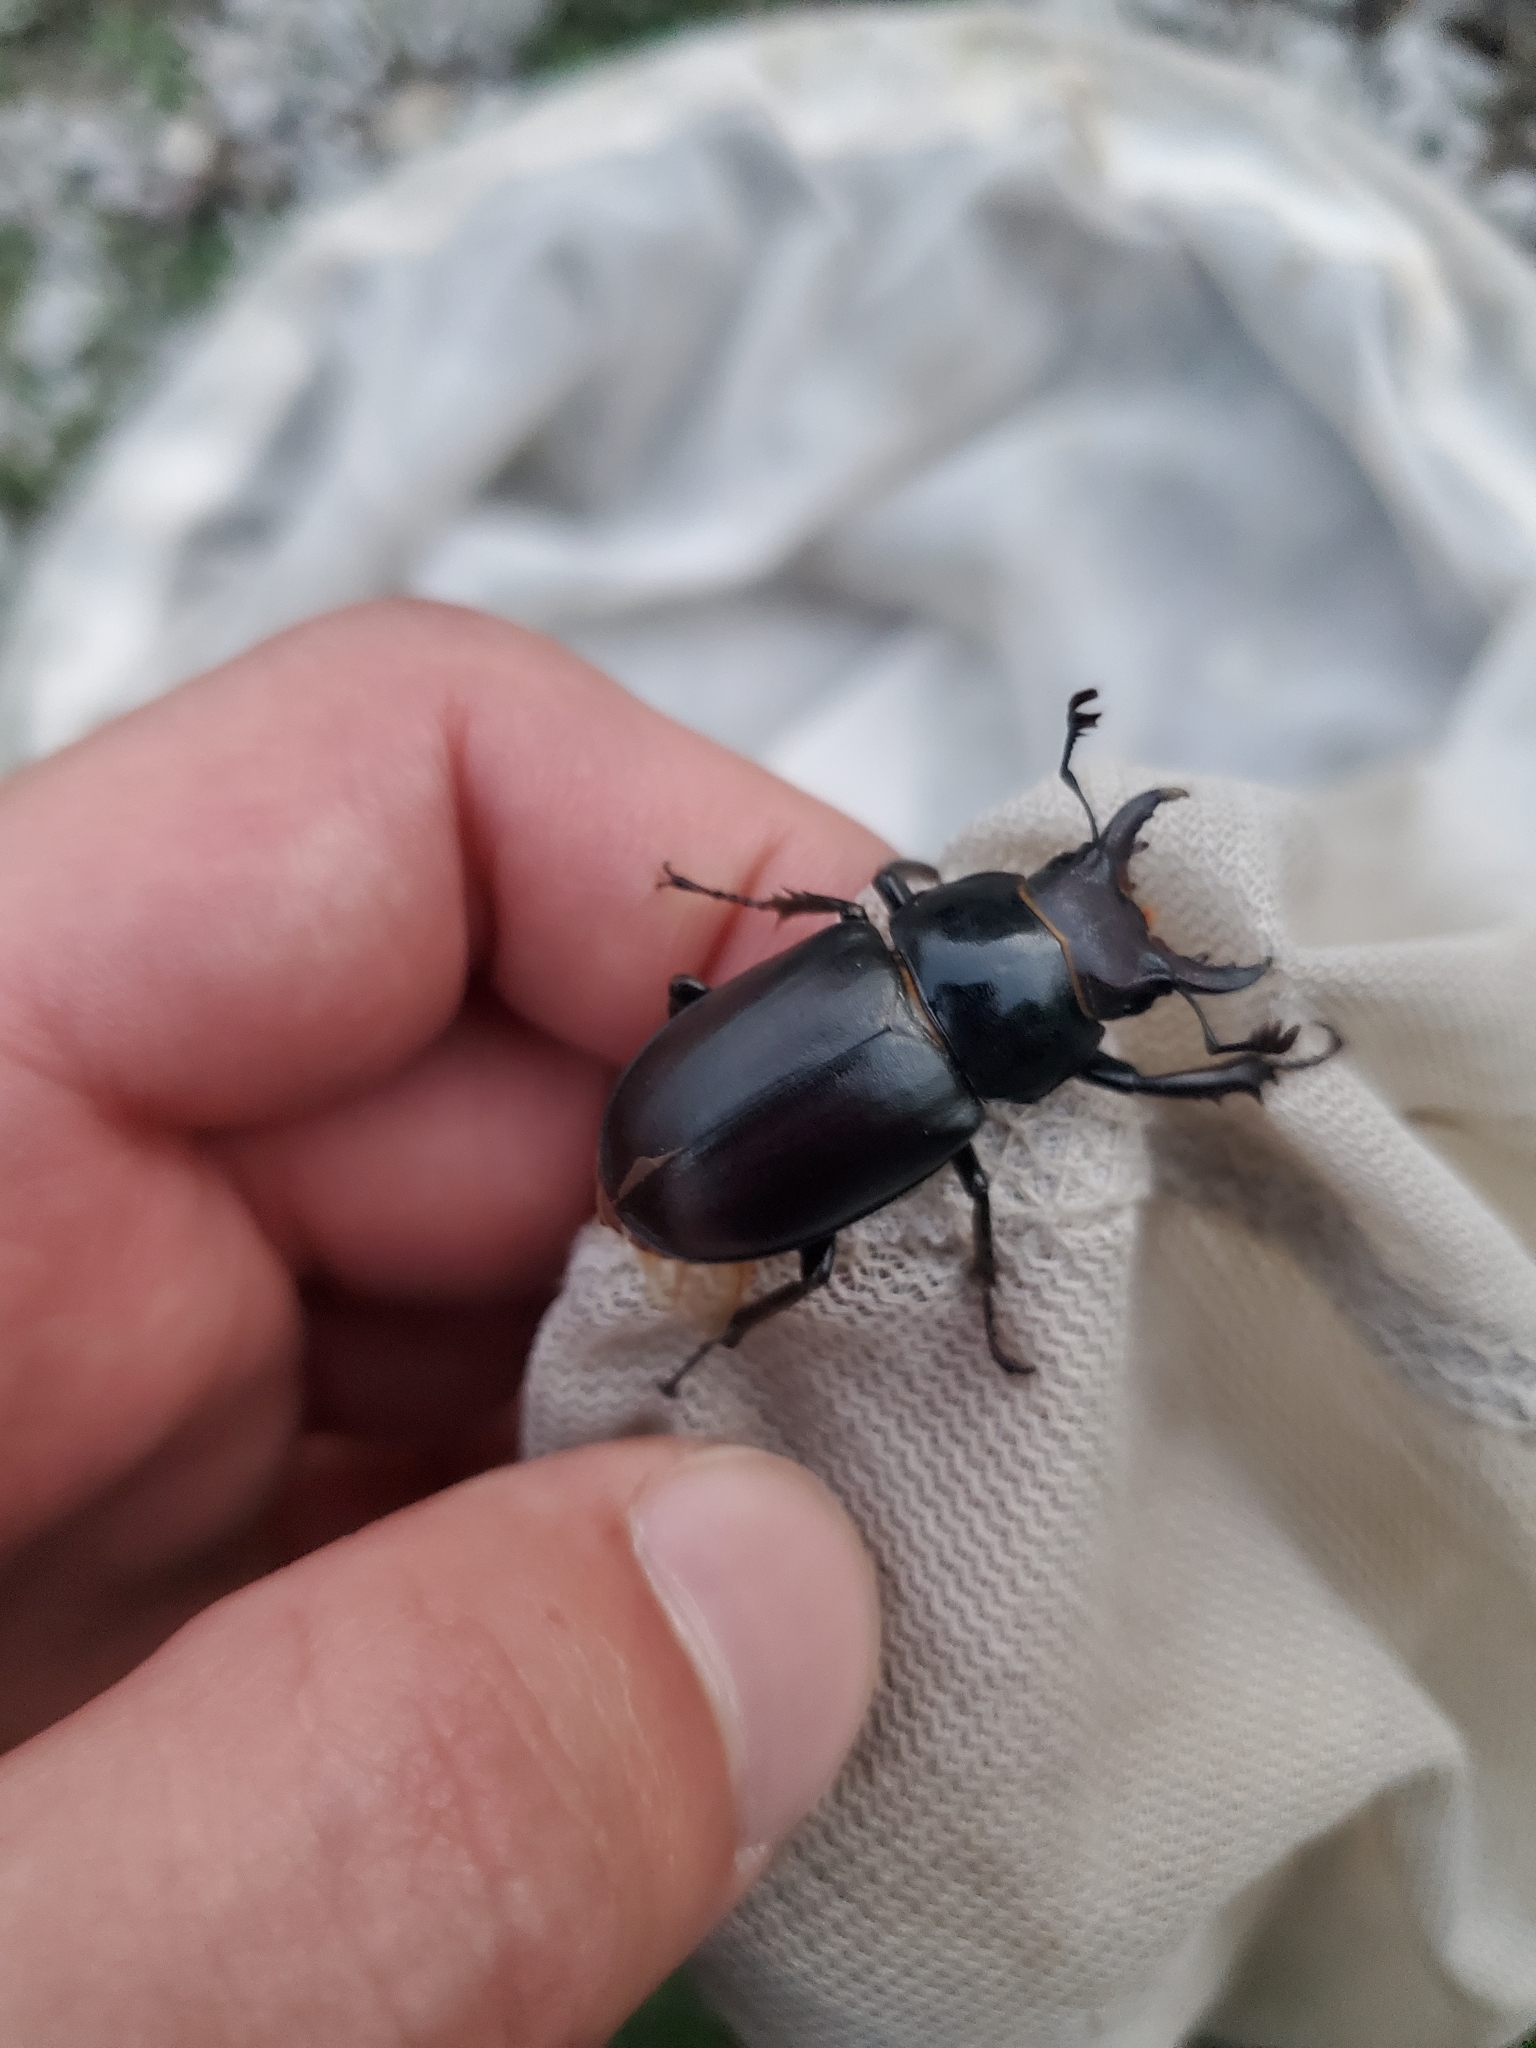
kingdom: Animalia
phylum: Arthropoda
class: Insecta
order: Coleoptera
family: Lucanidae
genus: Lucanus
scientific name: Lucanus placidus
